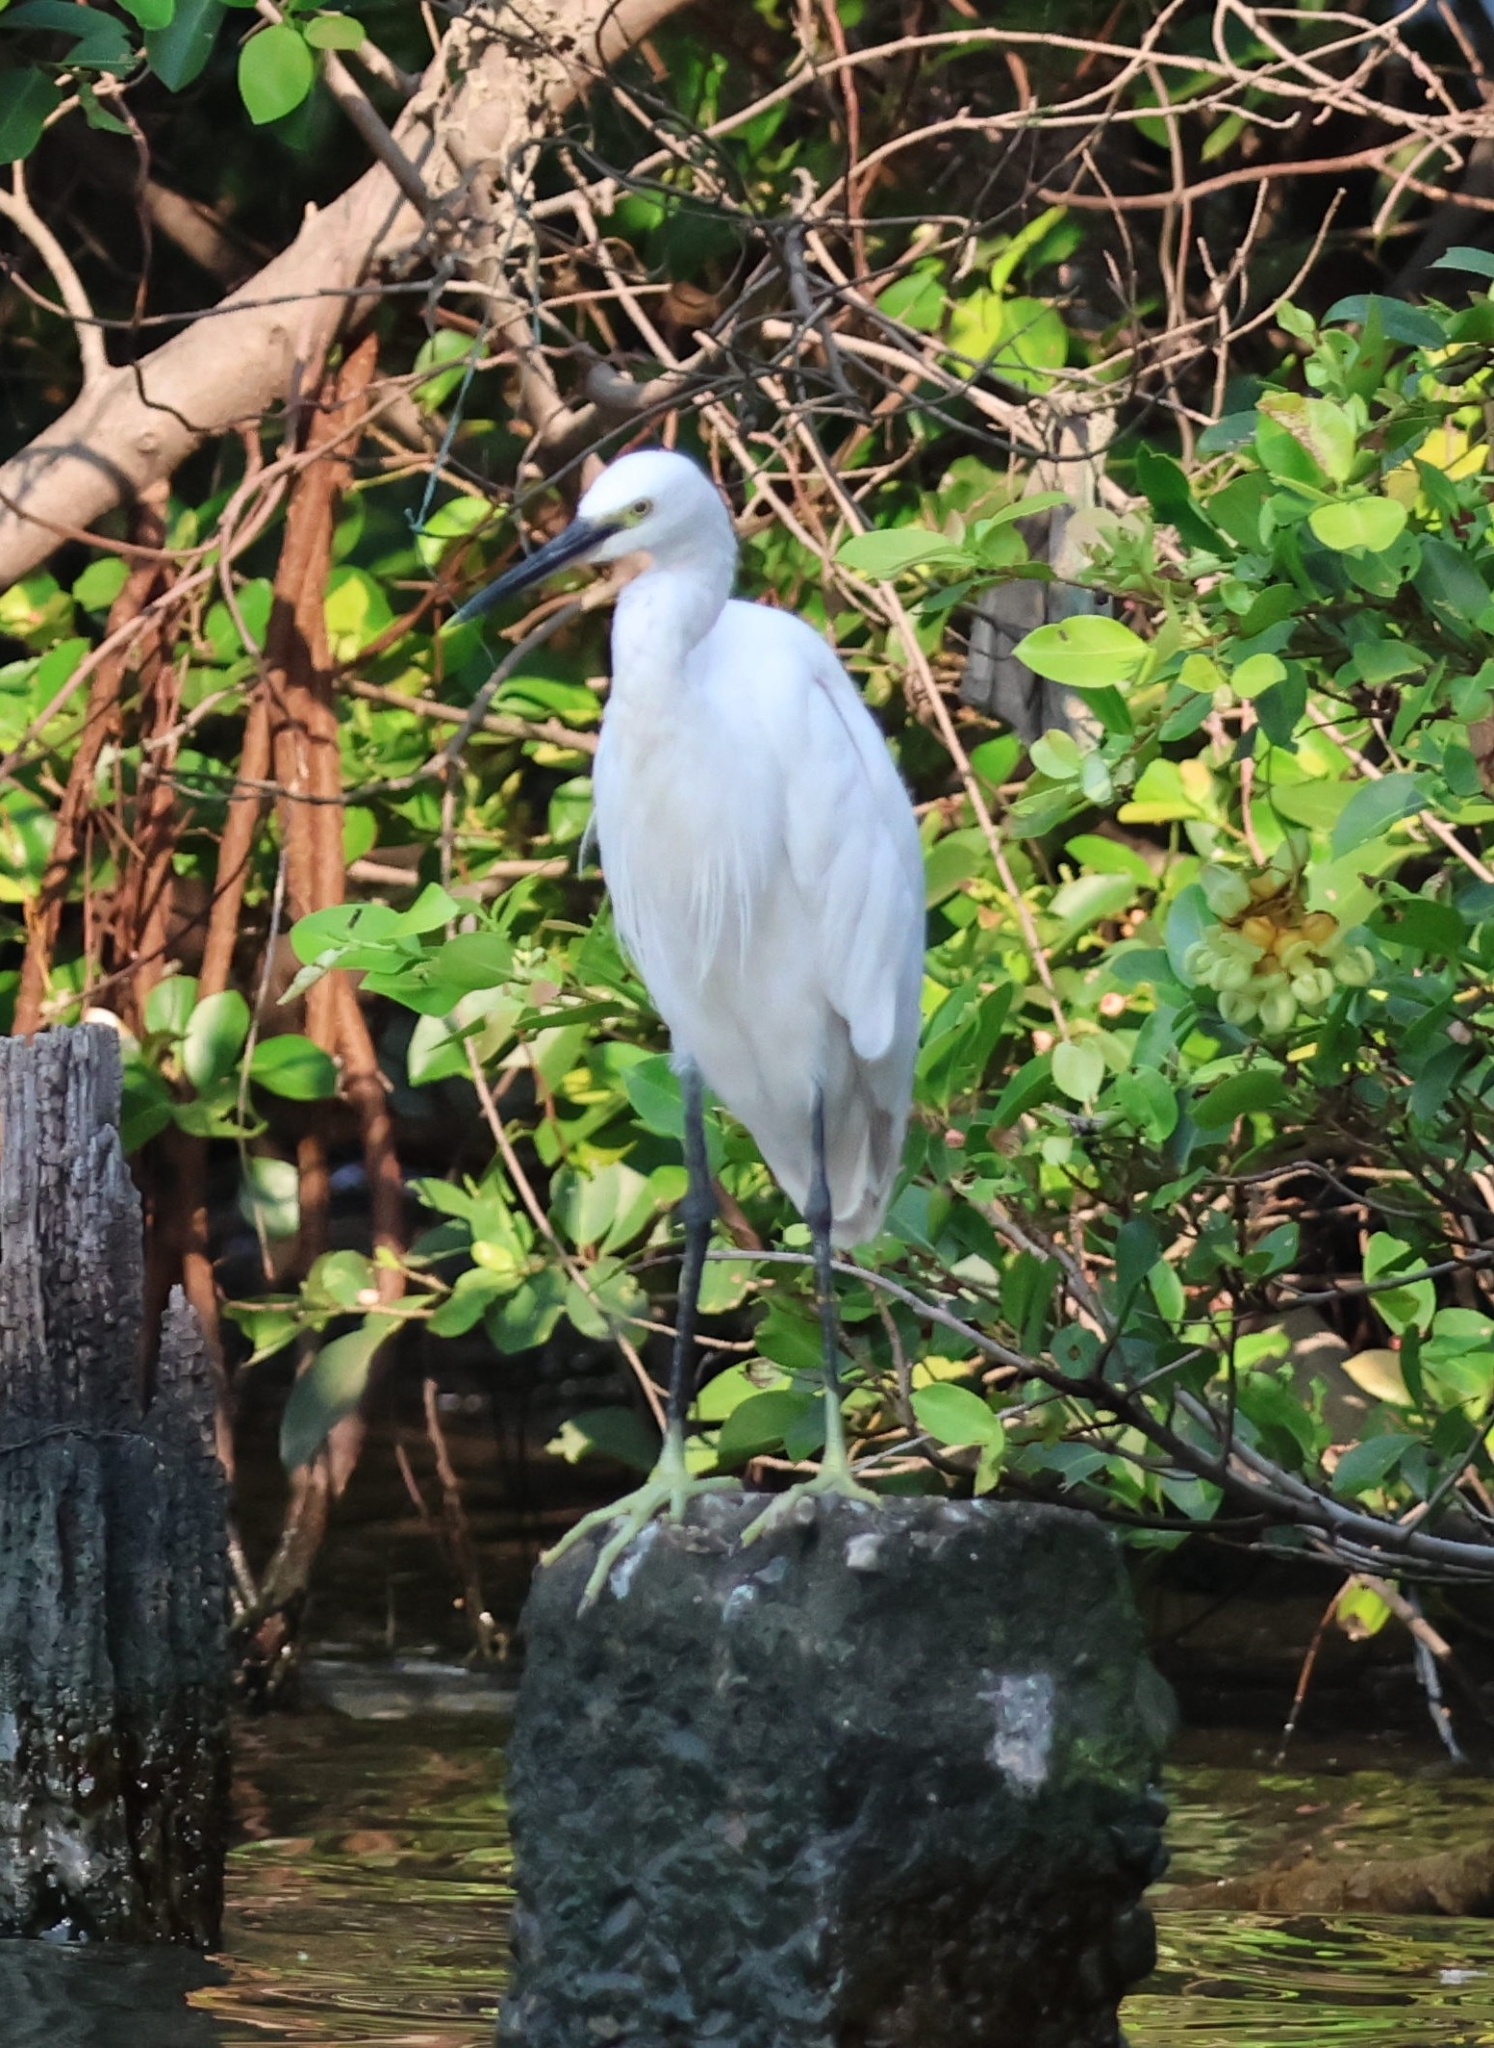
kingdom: Animalia
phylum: Chordata
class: Aves
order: Pelecaniformes
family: Ardeidae
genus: Egretta
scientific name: Egretta garzetta
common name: Little egret
